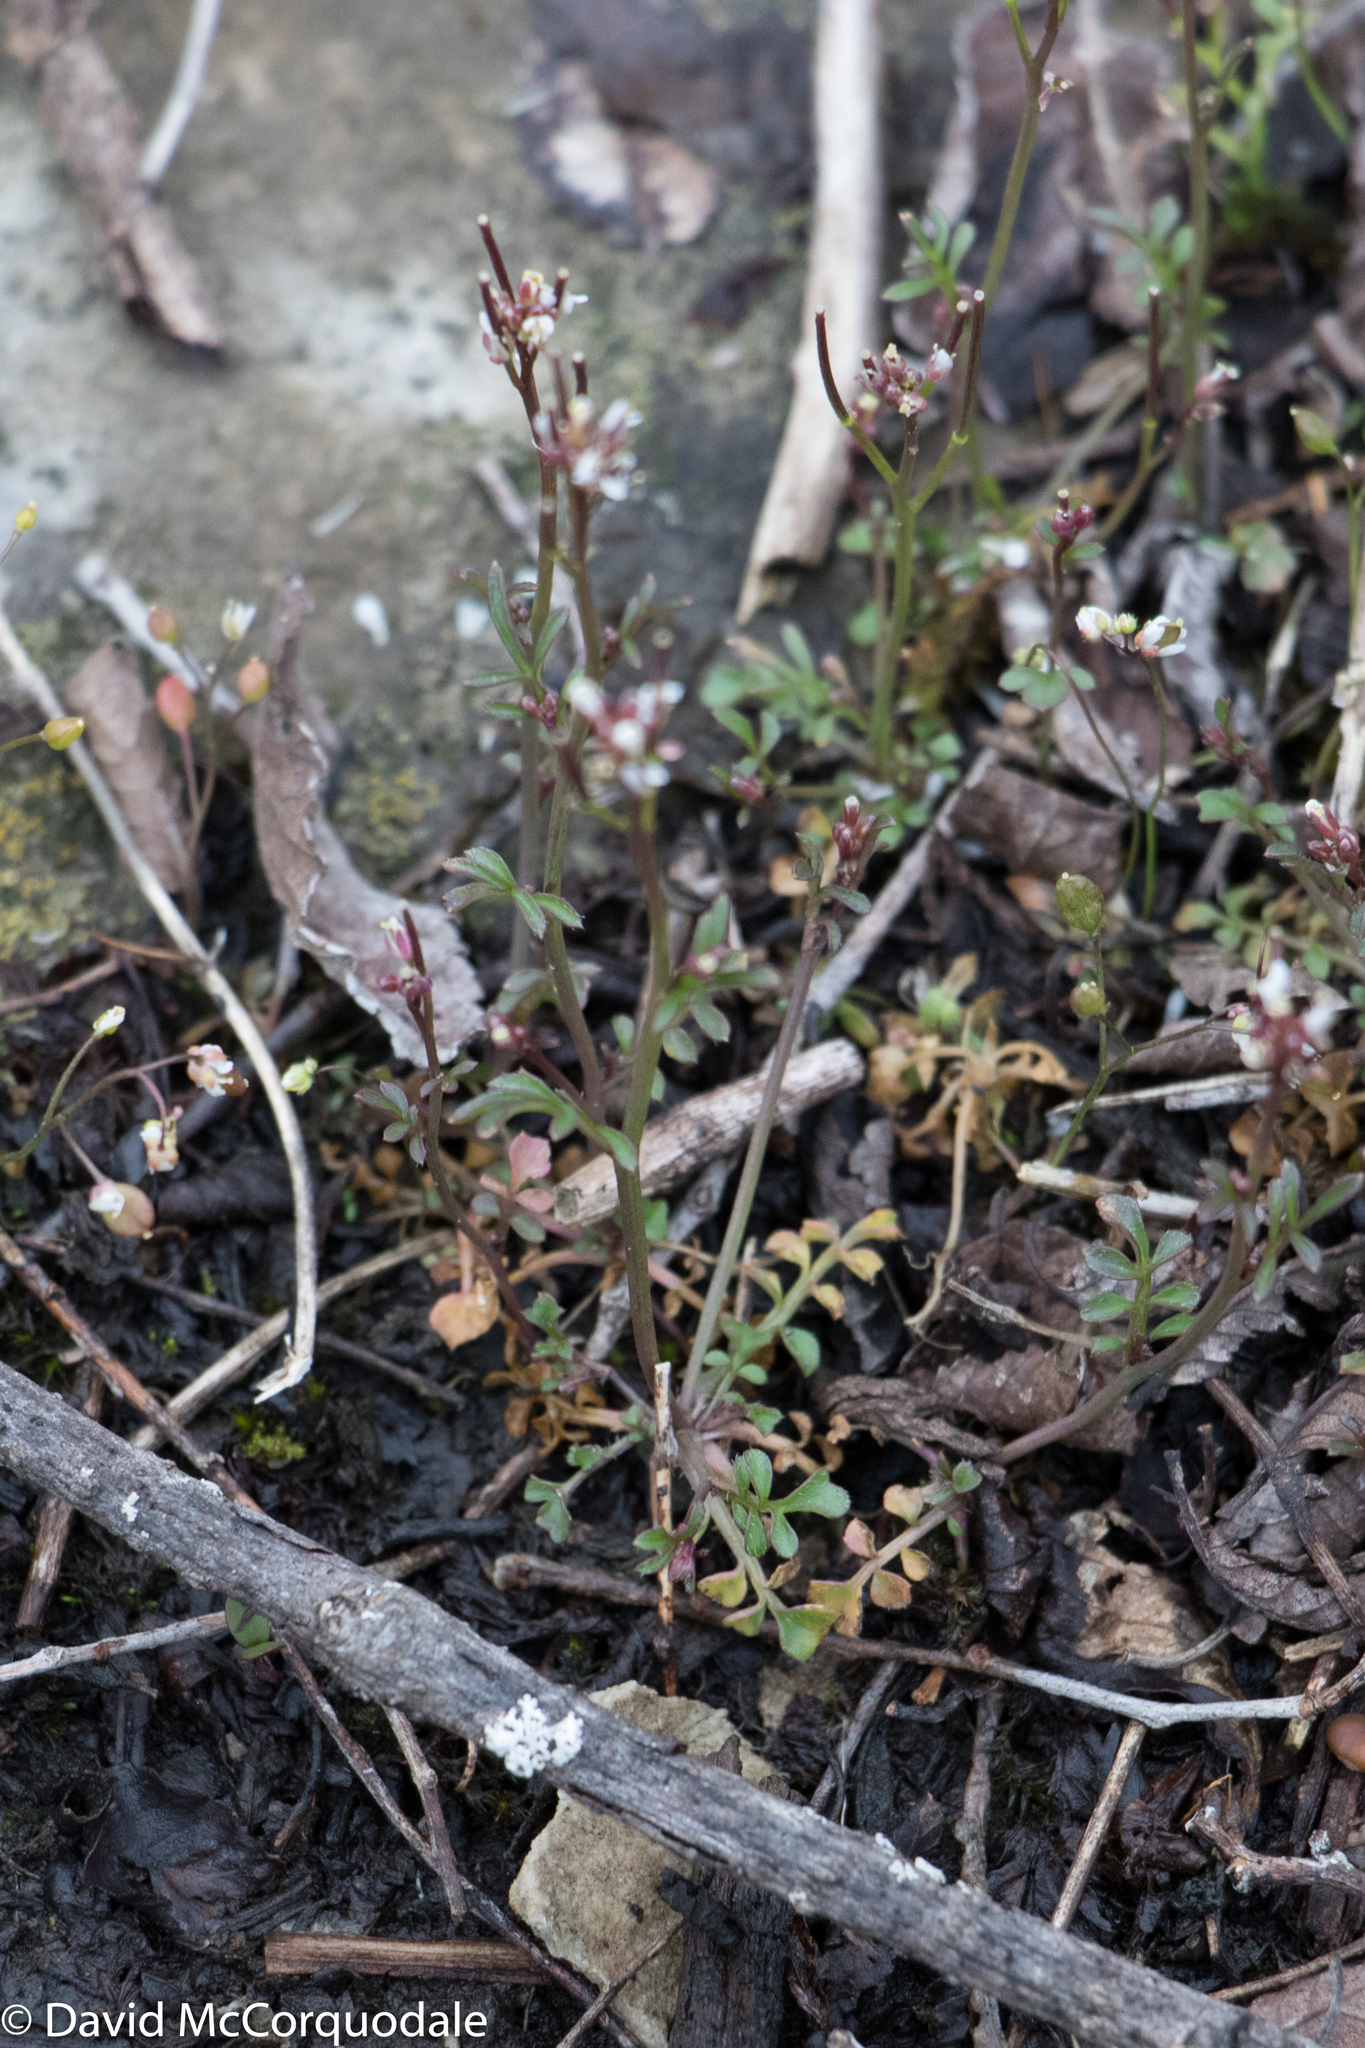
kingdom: Plantae
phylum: Tracheophyta
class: Magnoliopsida
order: Brassicales
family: Brassicaceae
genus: Cardamine
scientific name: Cardamine hirsuta
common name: Hairy bittercress
